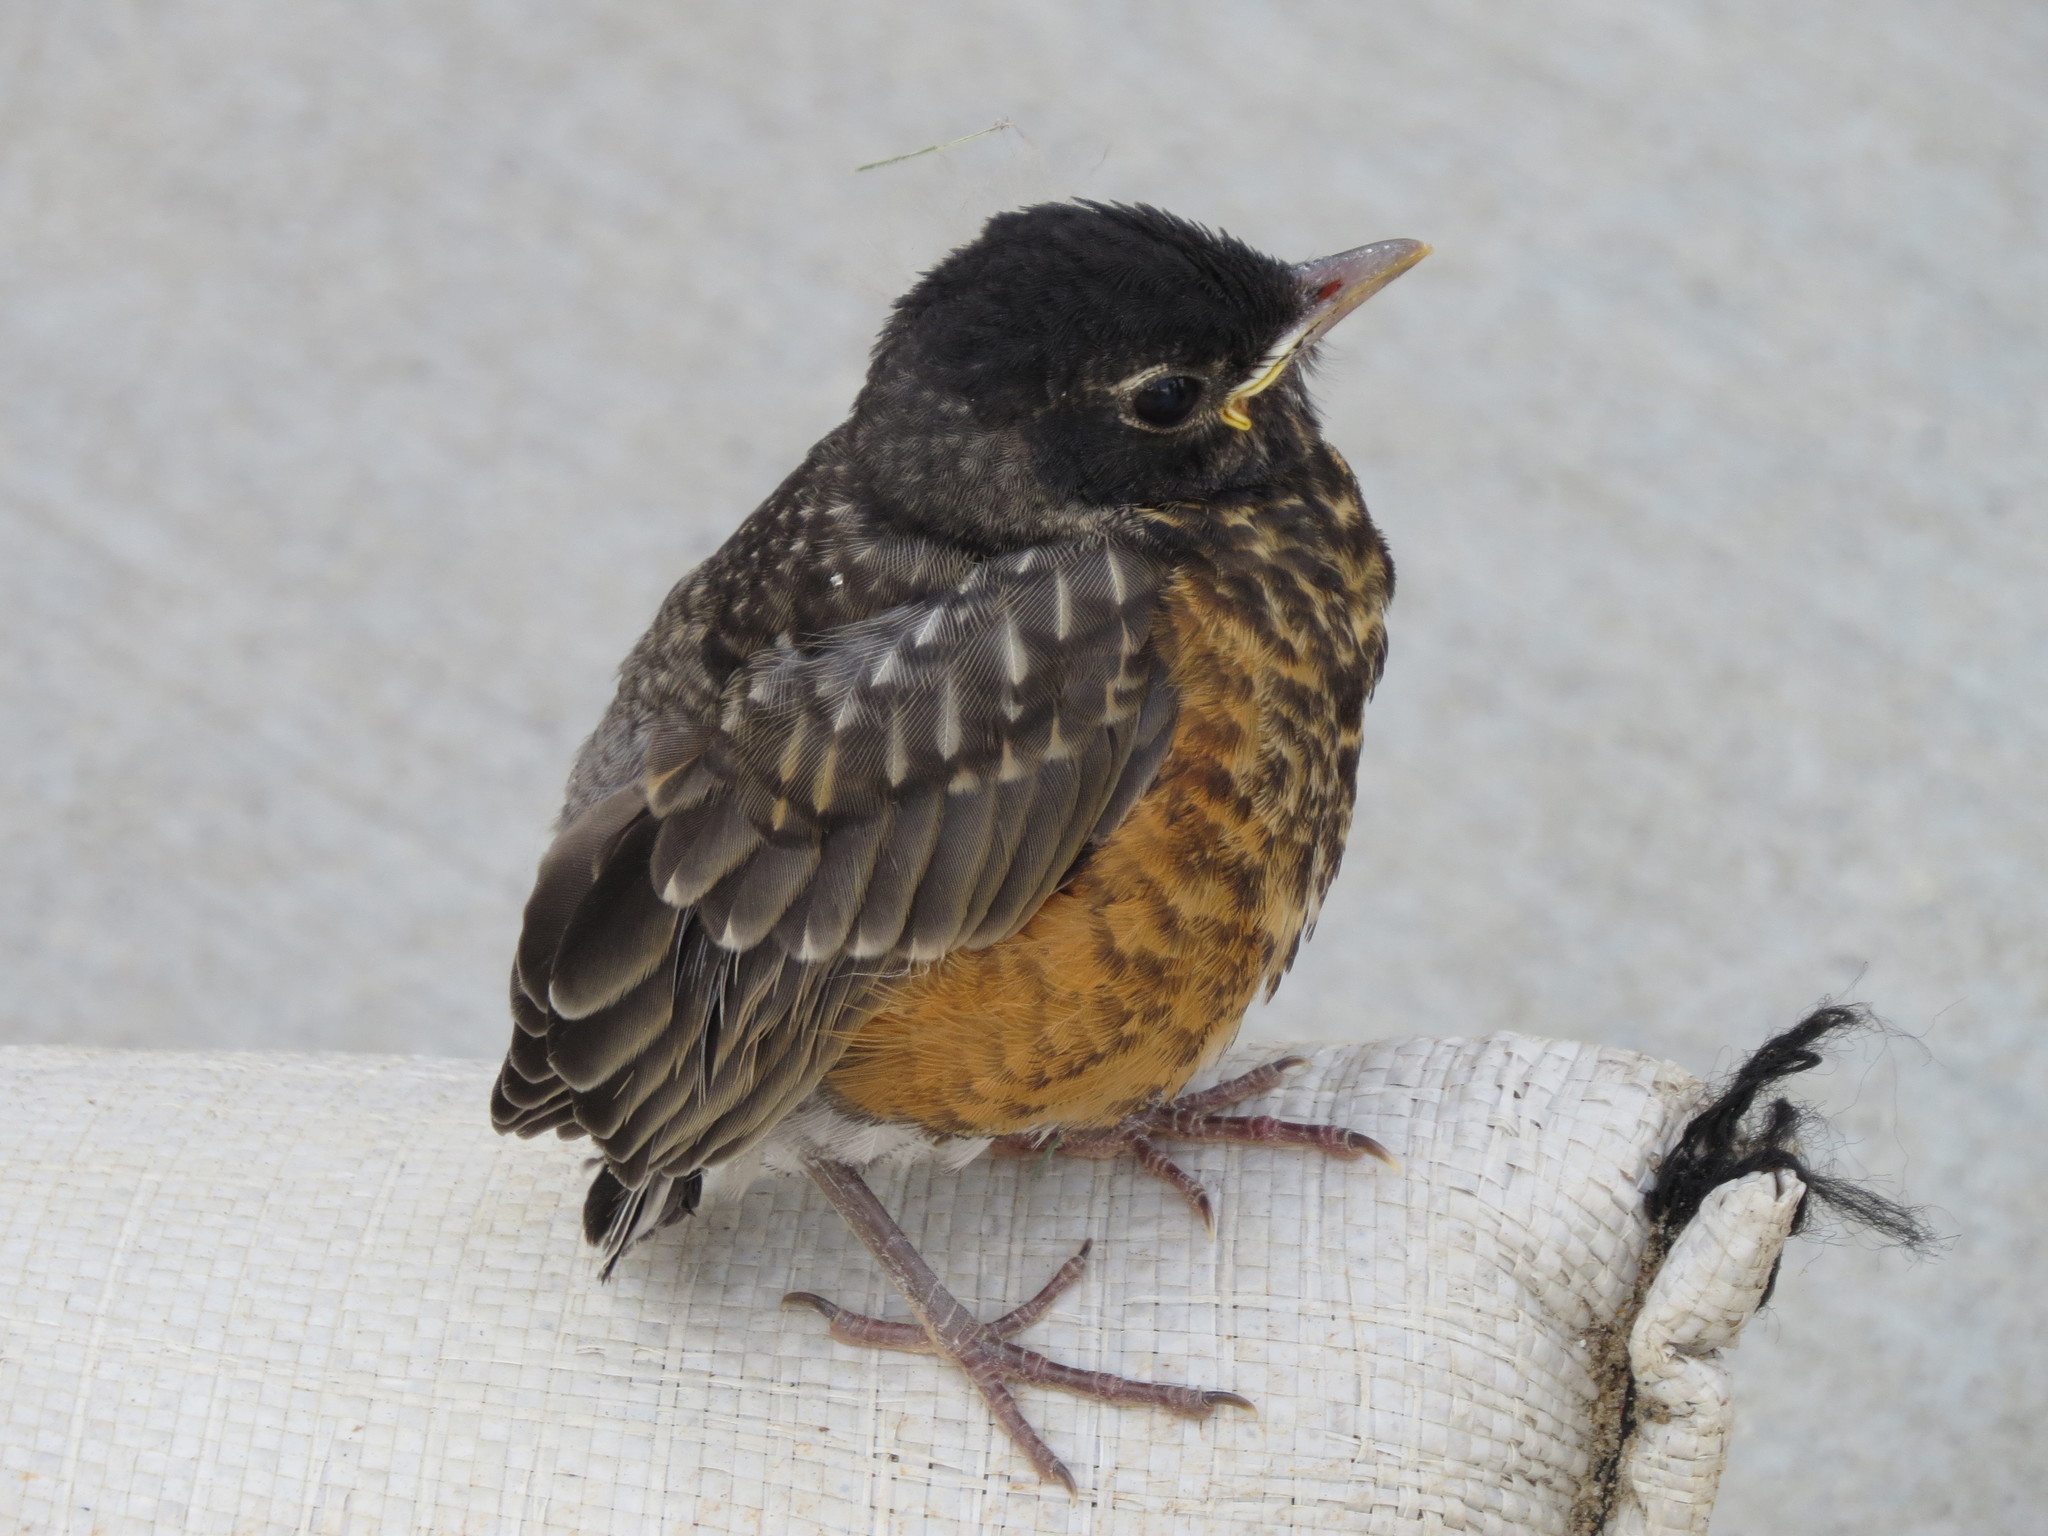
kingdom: Animalia
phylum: Chordata
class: Aves
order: Passeriformes
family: Turdidae
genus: Turdus
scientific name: Turdus migratorius
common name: American robin
